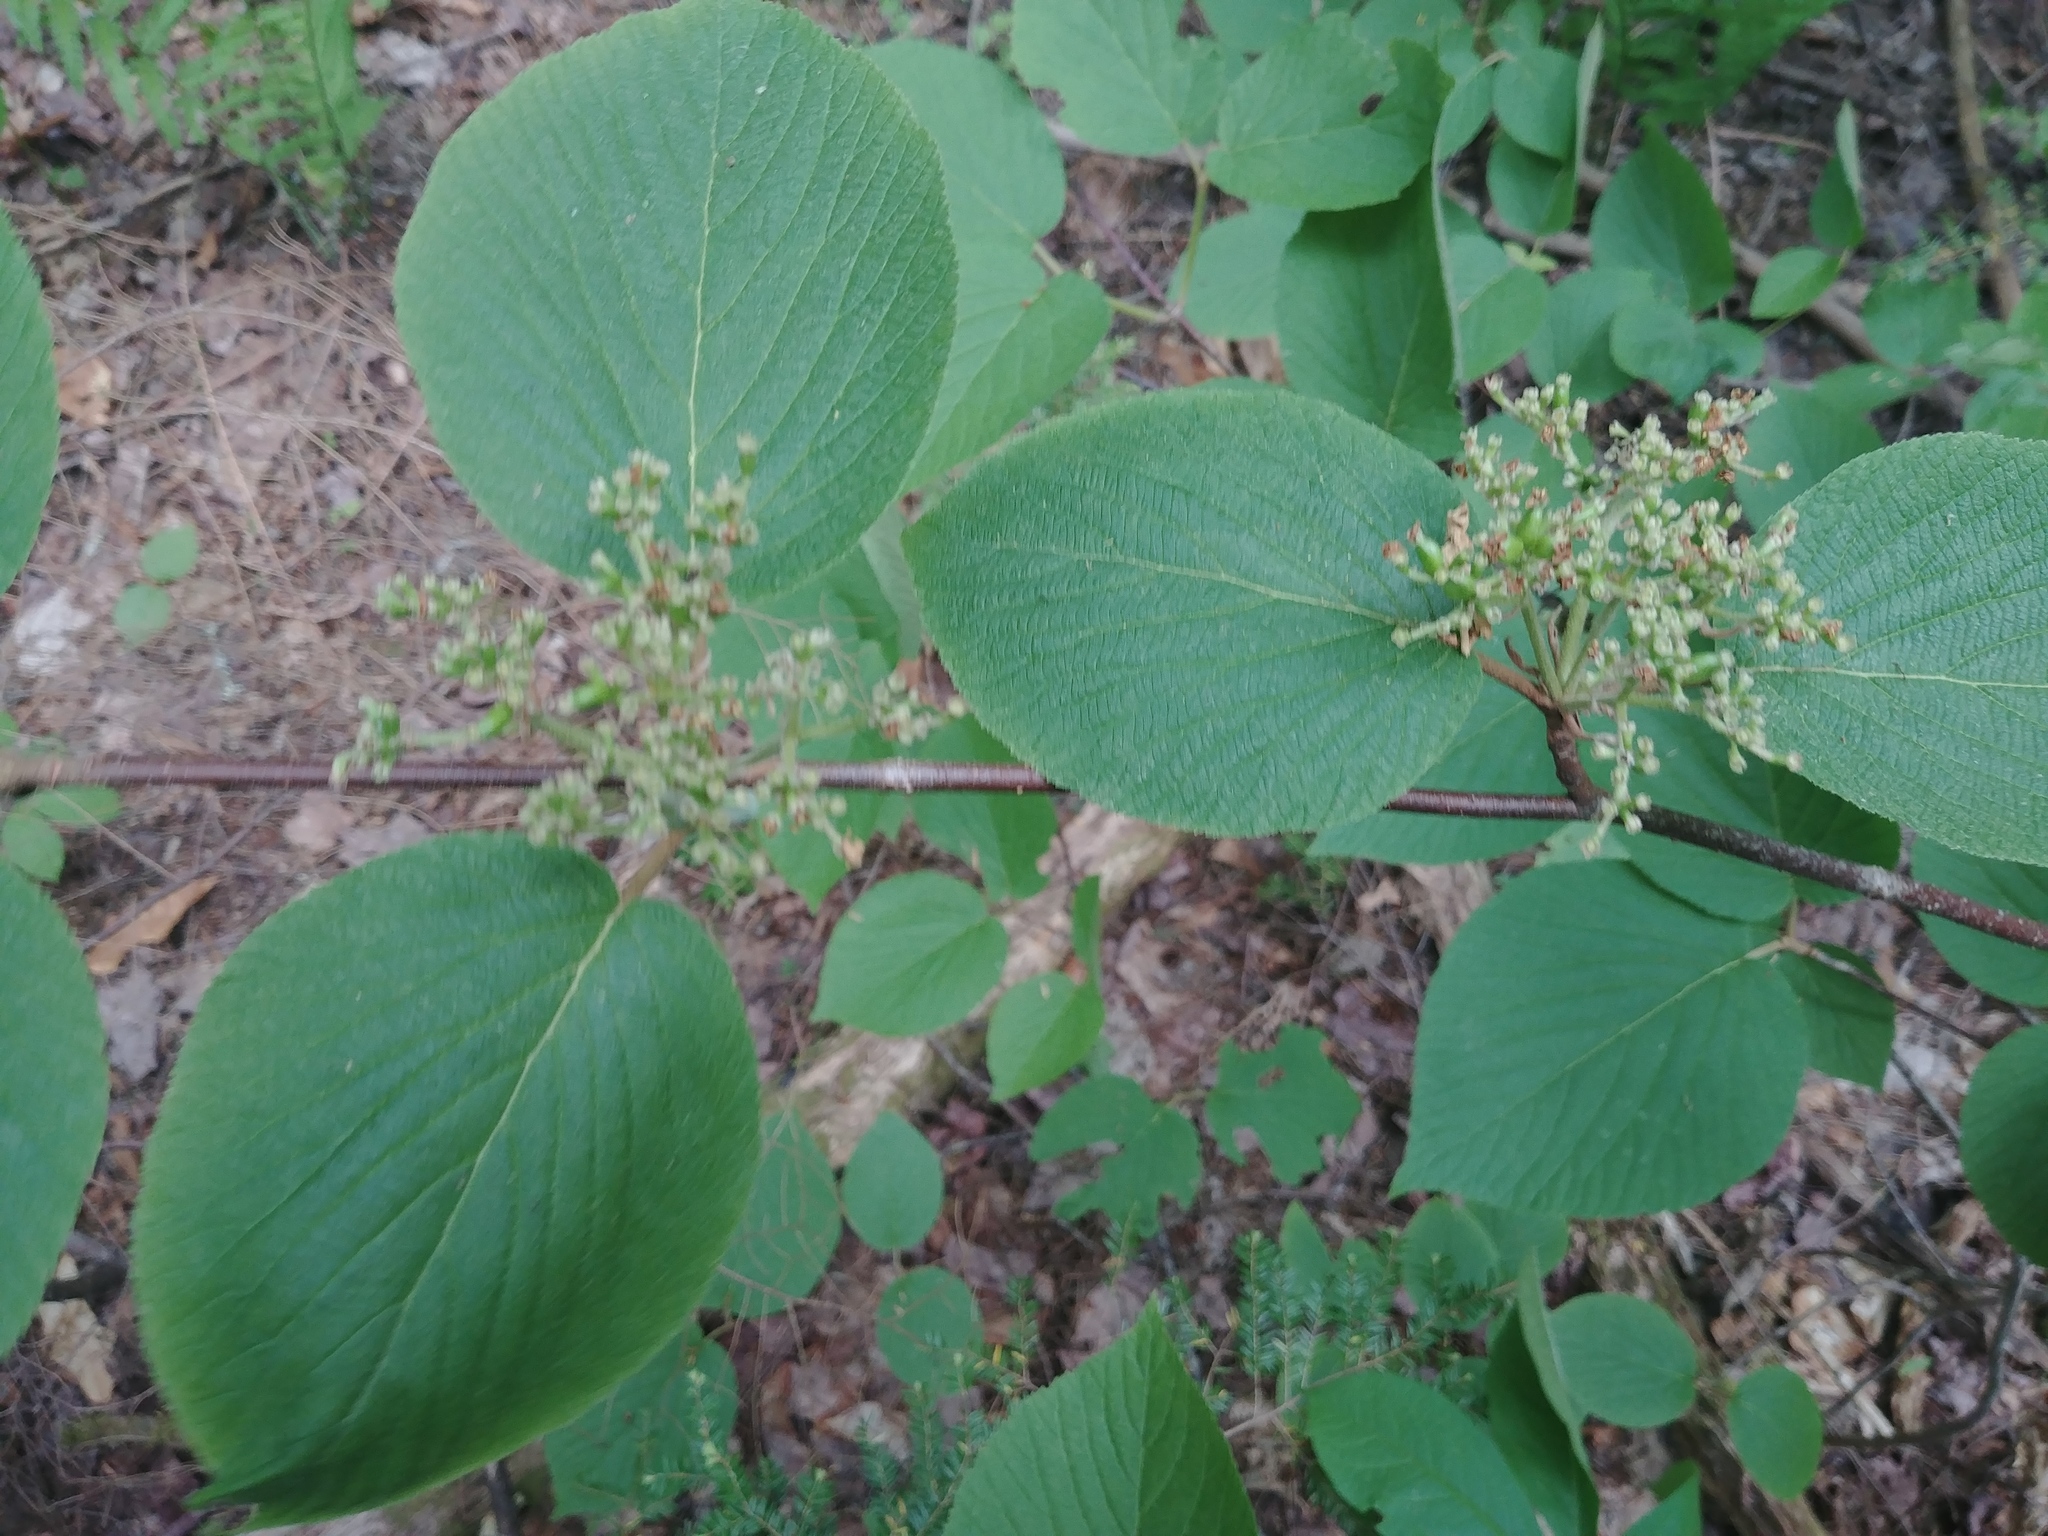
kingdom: Plantae
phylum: Tracheophyta
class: Magnoliopsida
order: Dipsacales
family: Viburnaceae
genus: Viburnum
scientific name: Viburnum lantanoides
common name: Hobblebush
